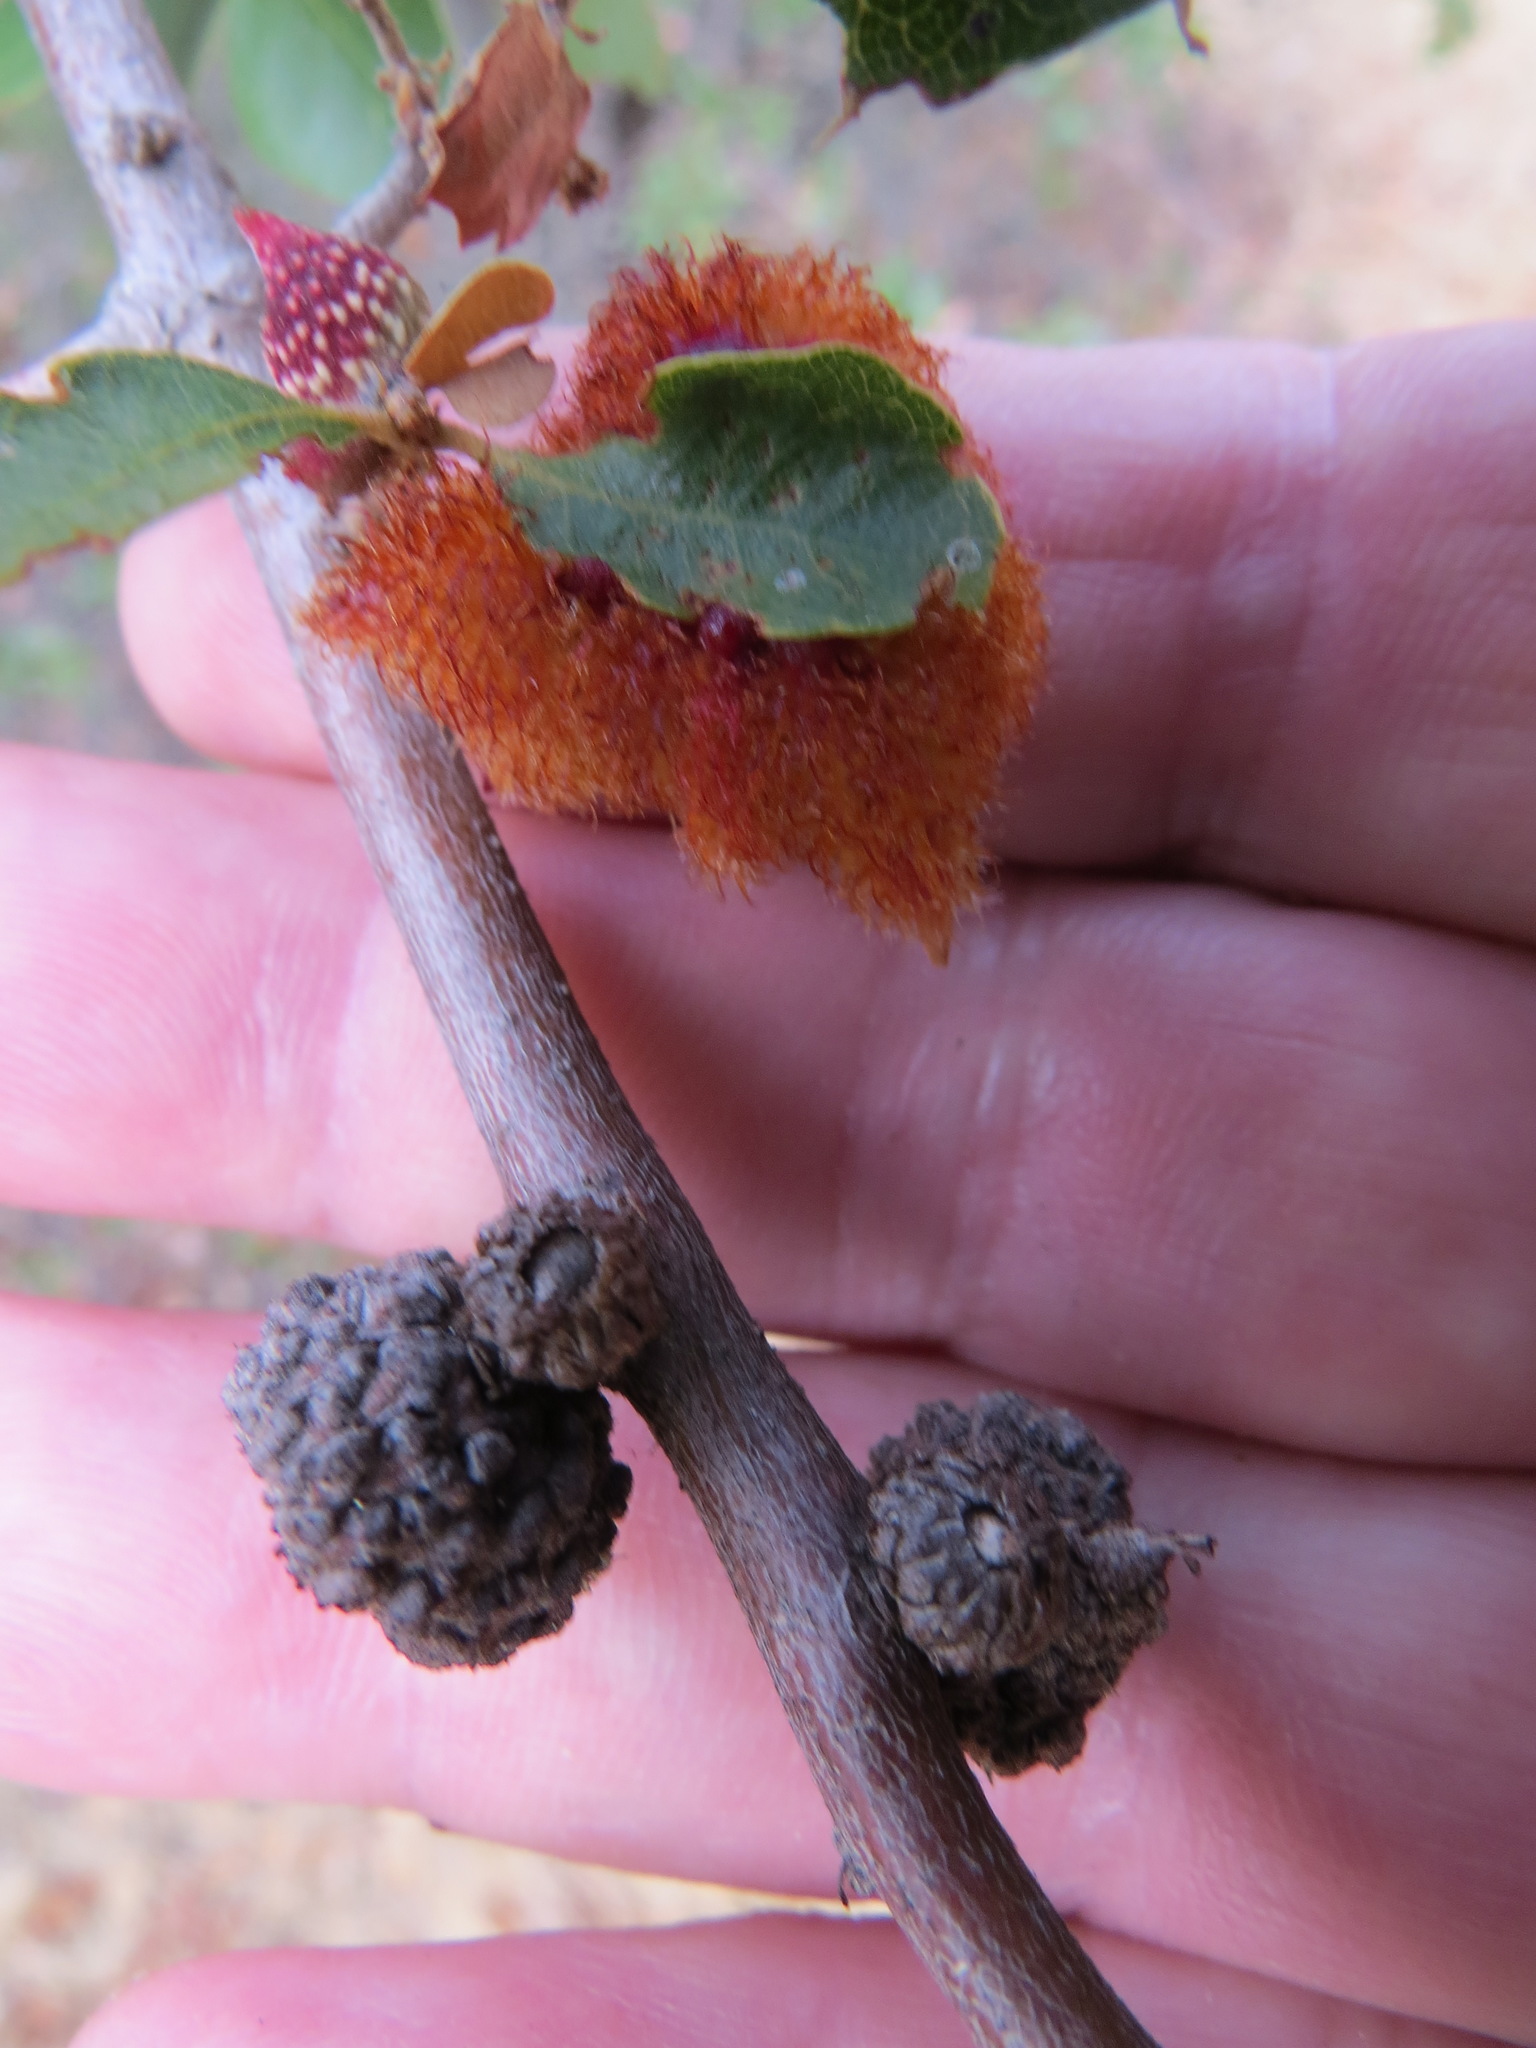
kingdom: Animalia
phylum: Arthropoda
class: Insecta
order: Hymenoptera
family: Cynipidae
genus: Andricus
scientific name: Andricus
